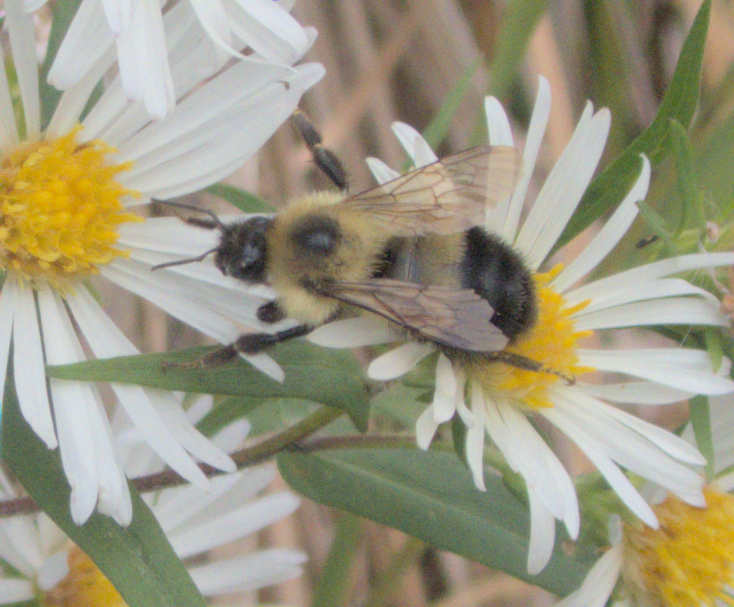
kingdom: Animalia
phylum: Arthropoda
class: Insecta
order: Hymenoptera
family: Apidae
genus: Pyrobombus
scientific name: Pyrobombus
